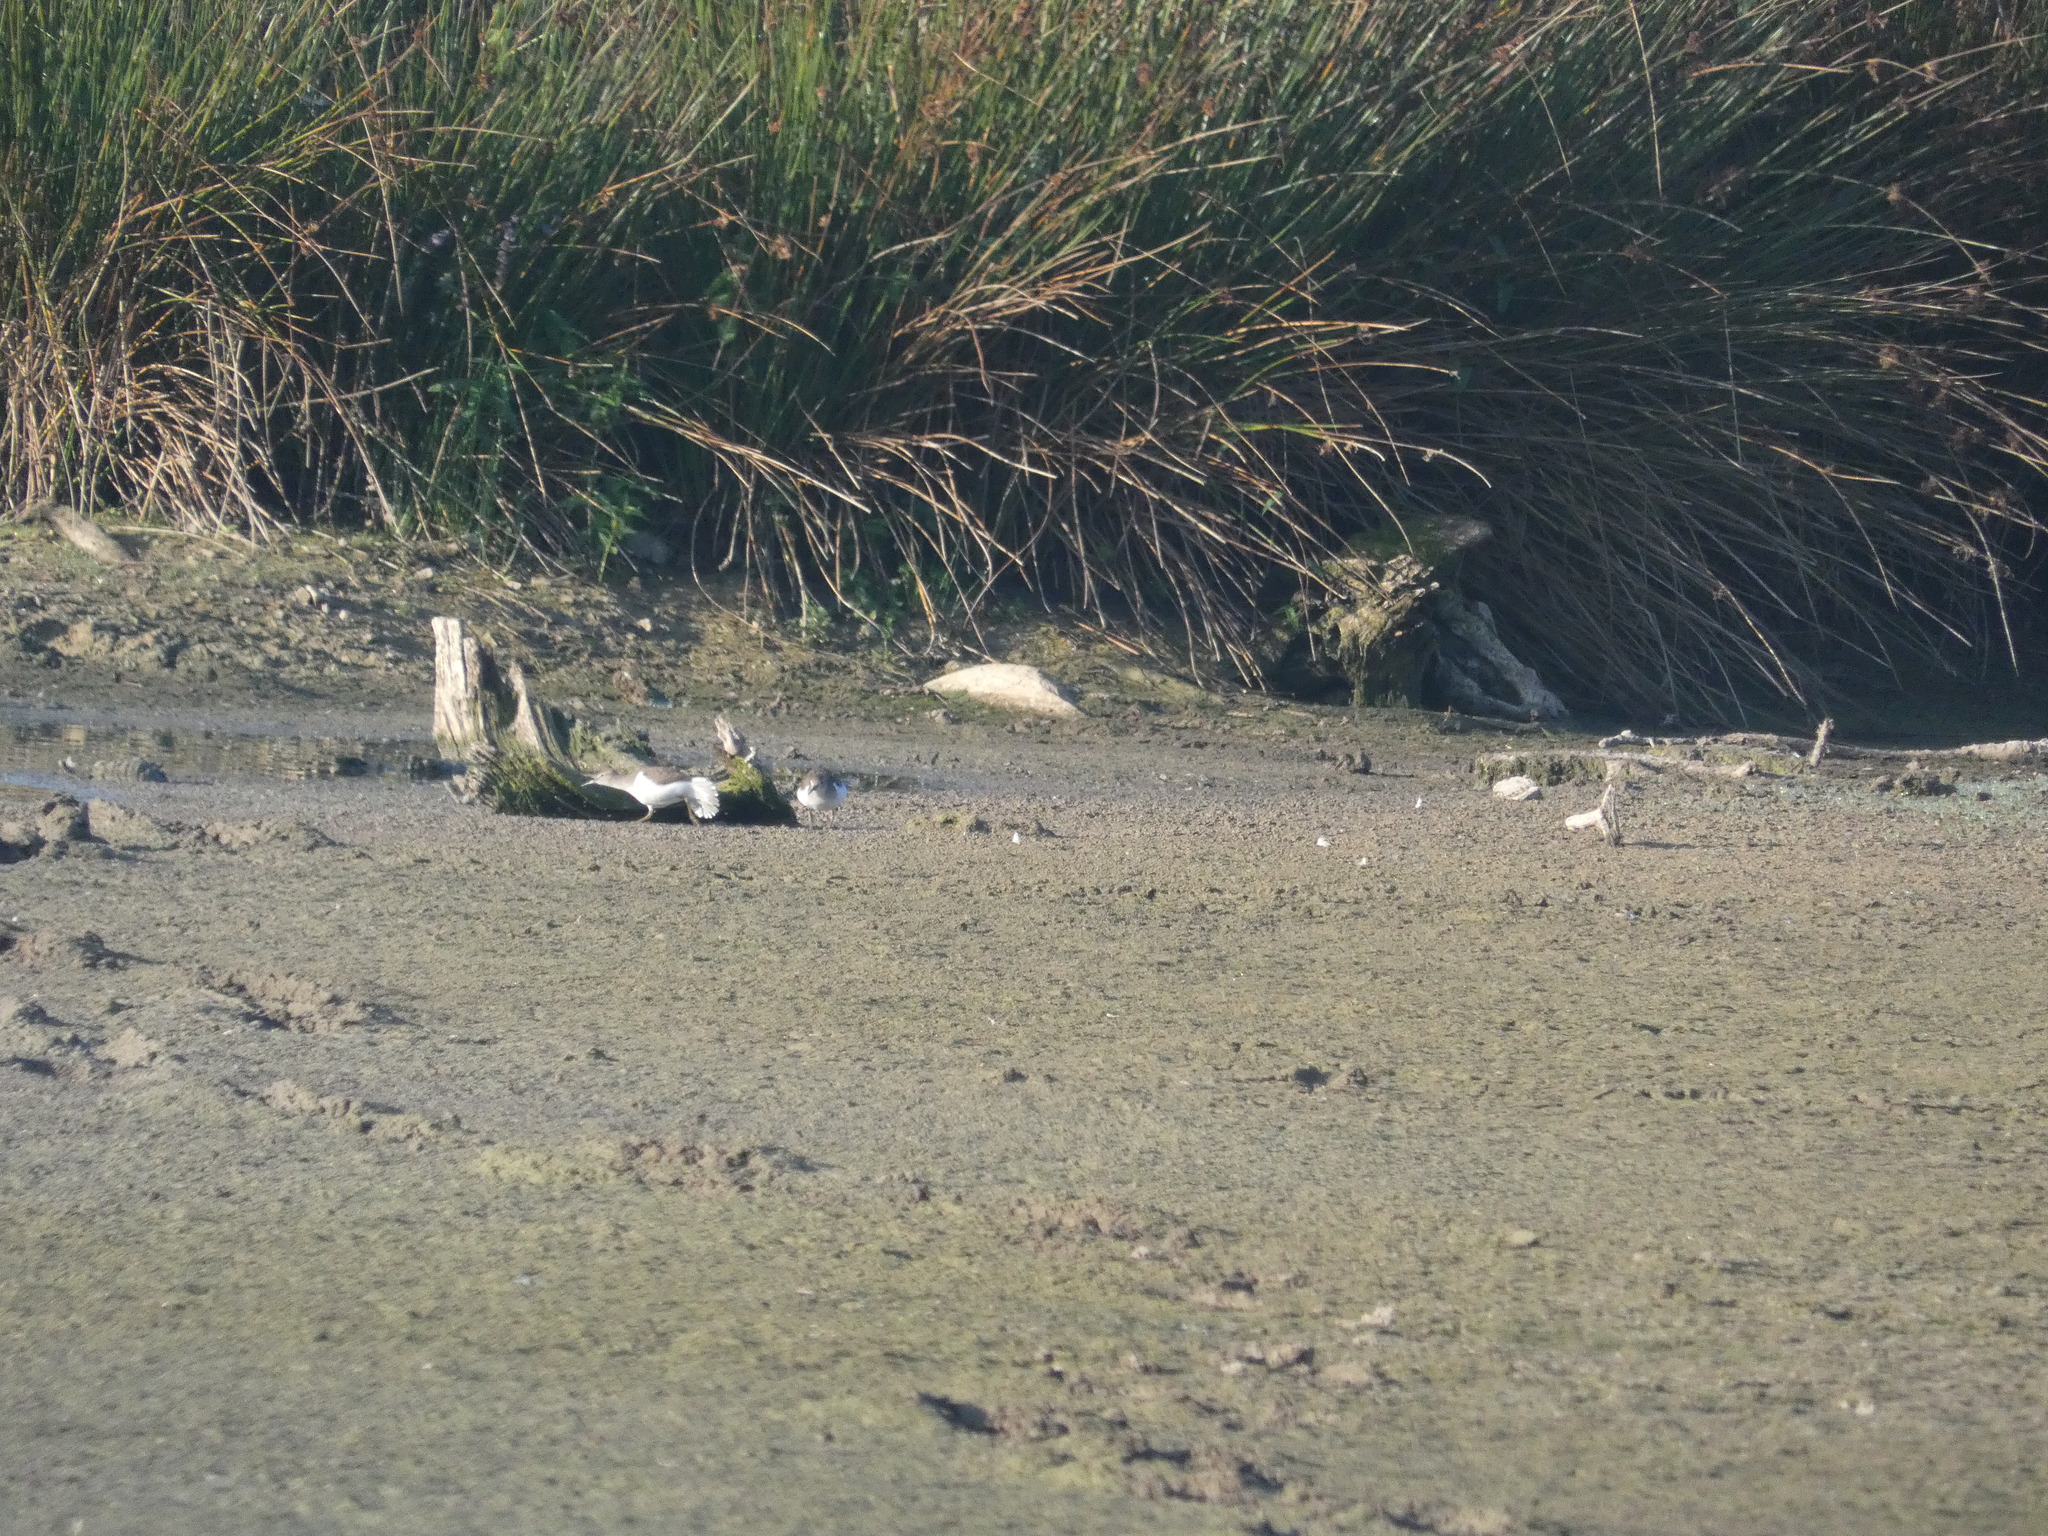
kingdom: Animalia
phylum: Chordata
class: Aves
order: Charadriiformes
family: Scolopacidae
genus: Actitis
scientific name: Actitis hypoleucos
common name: Common sandpiper
